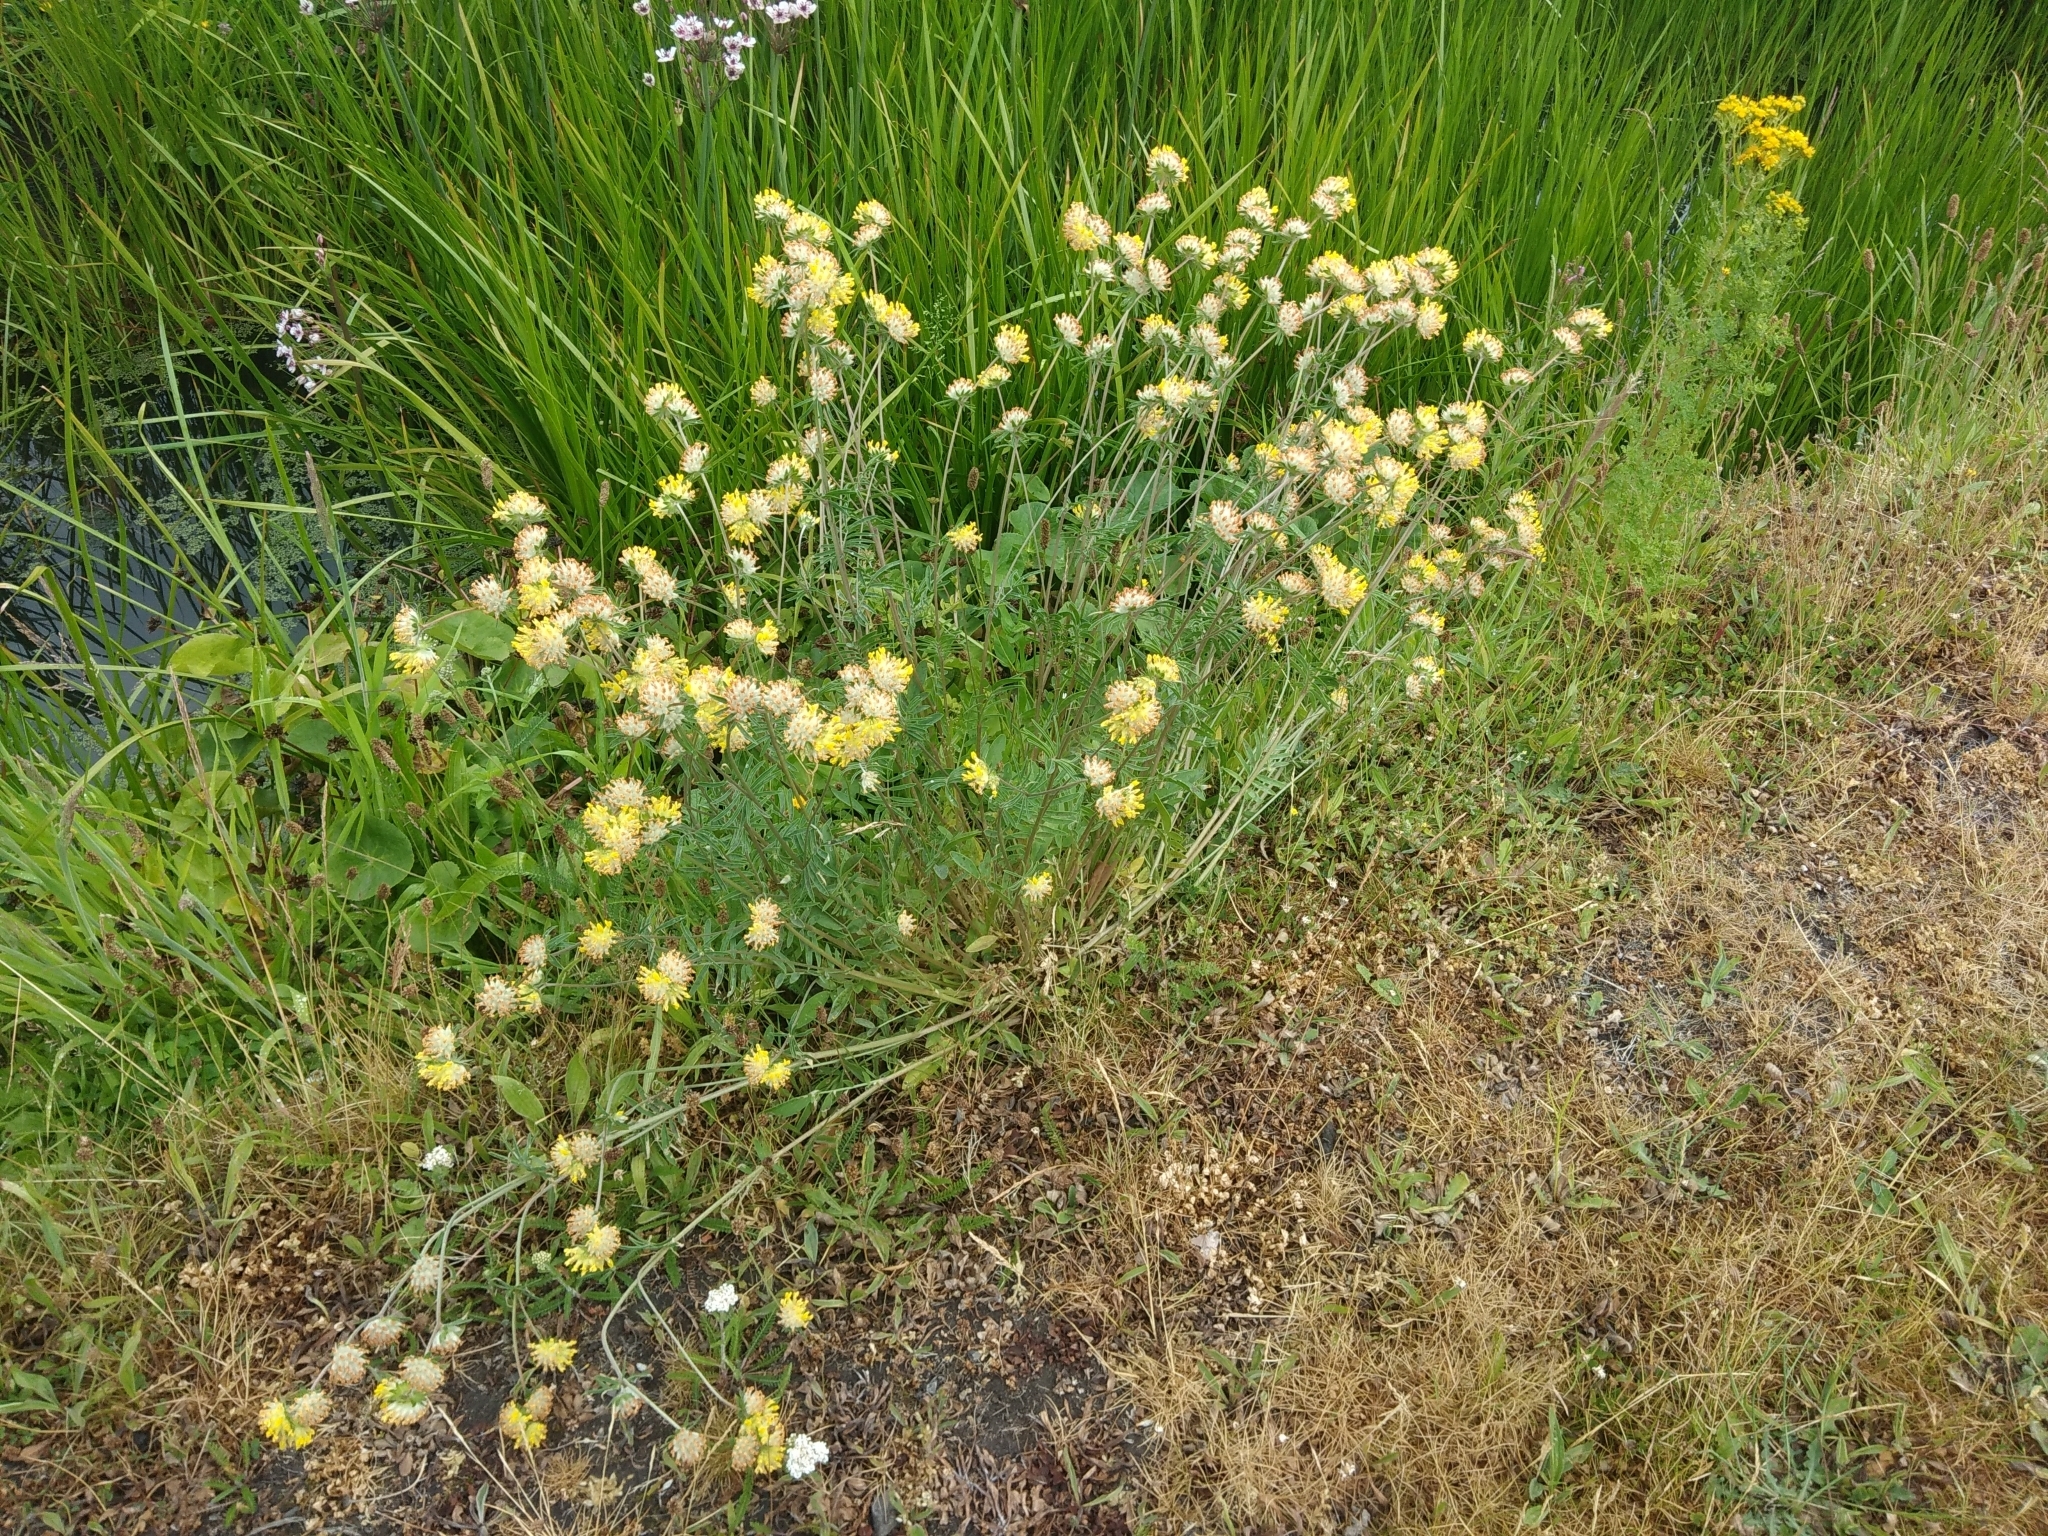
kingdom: Plantae
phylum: Tracheophyta
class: Magnoliopsida
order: Fabales
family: Fabaceae
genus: Anthyllis
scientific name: Anthyllis vulneraria
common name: Kidney vetch
